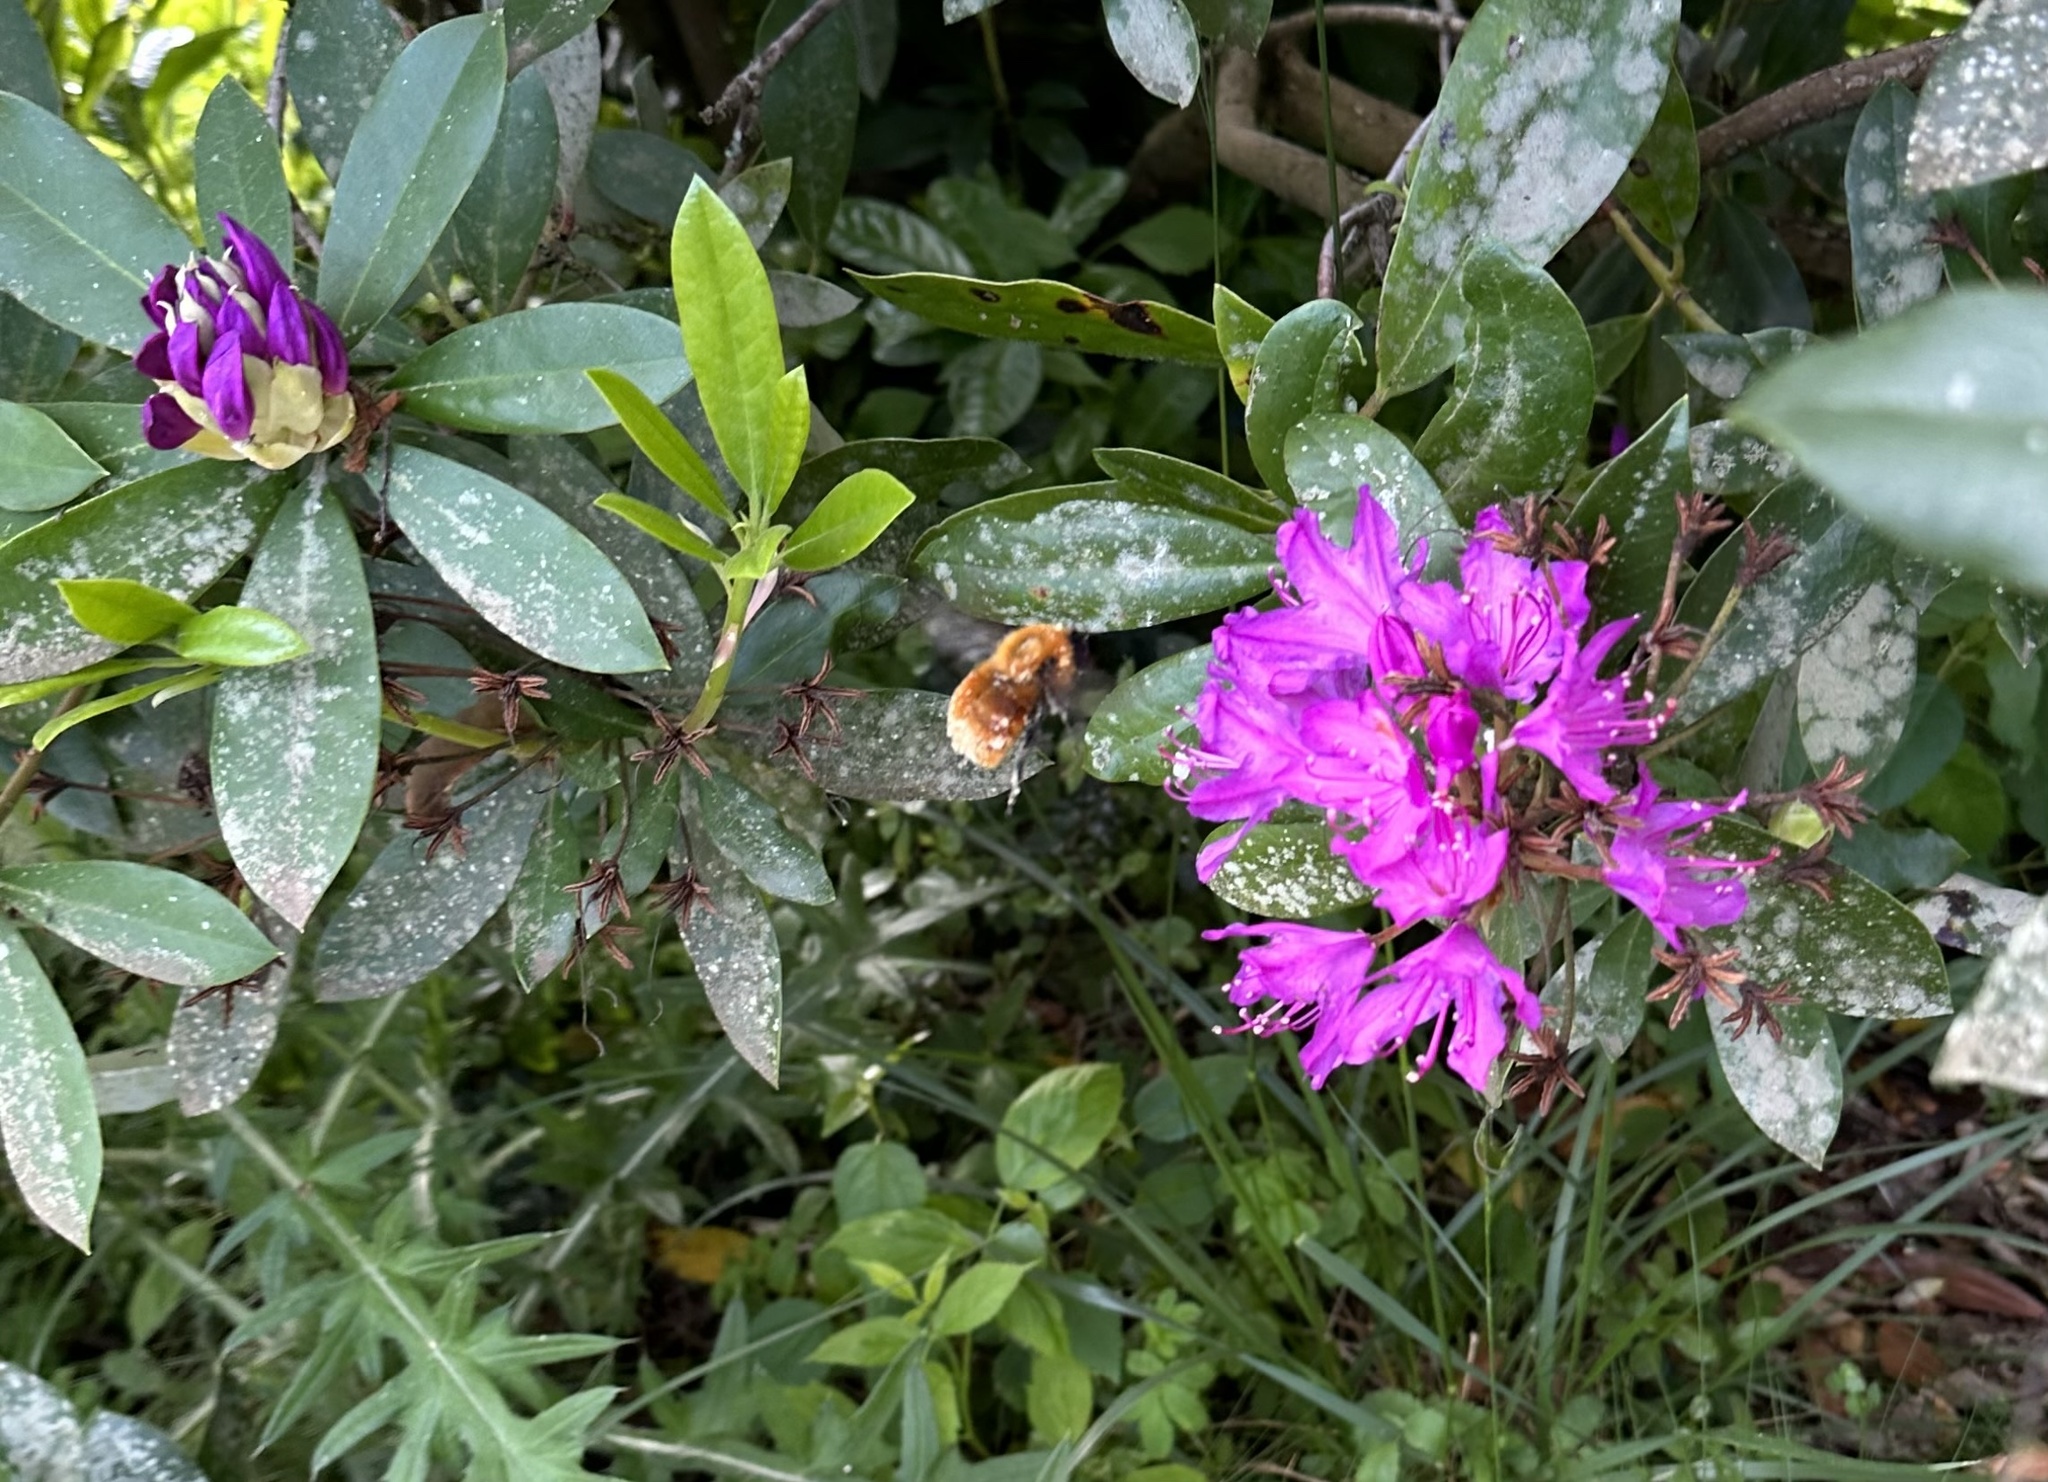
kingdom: Animalia
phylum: Arthropoda
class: Insecta
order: Hymenoptera
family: Apidae
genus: Bombus
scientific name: Bombus dahlbomii
